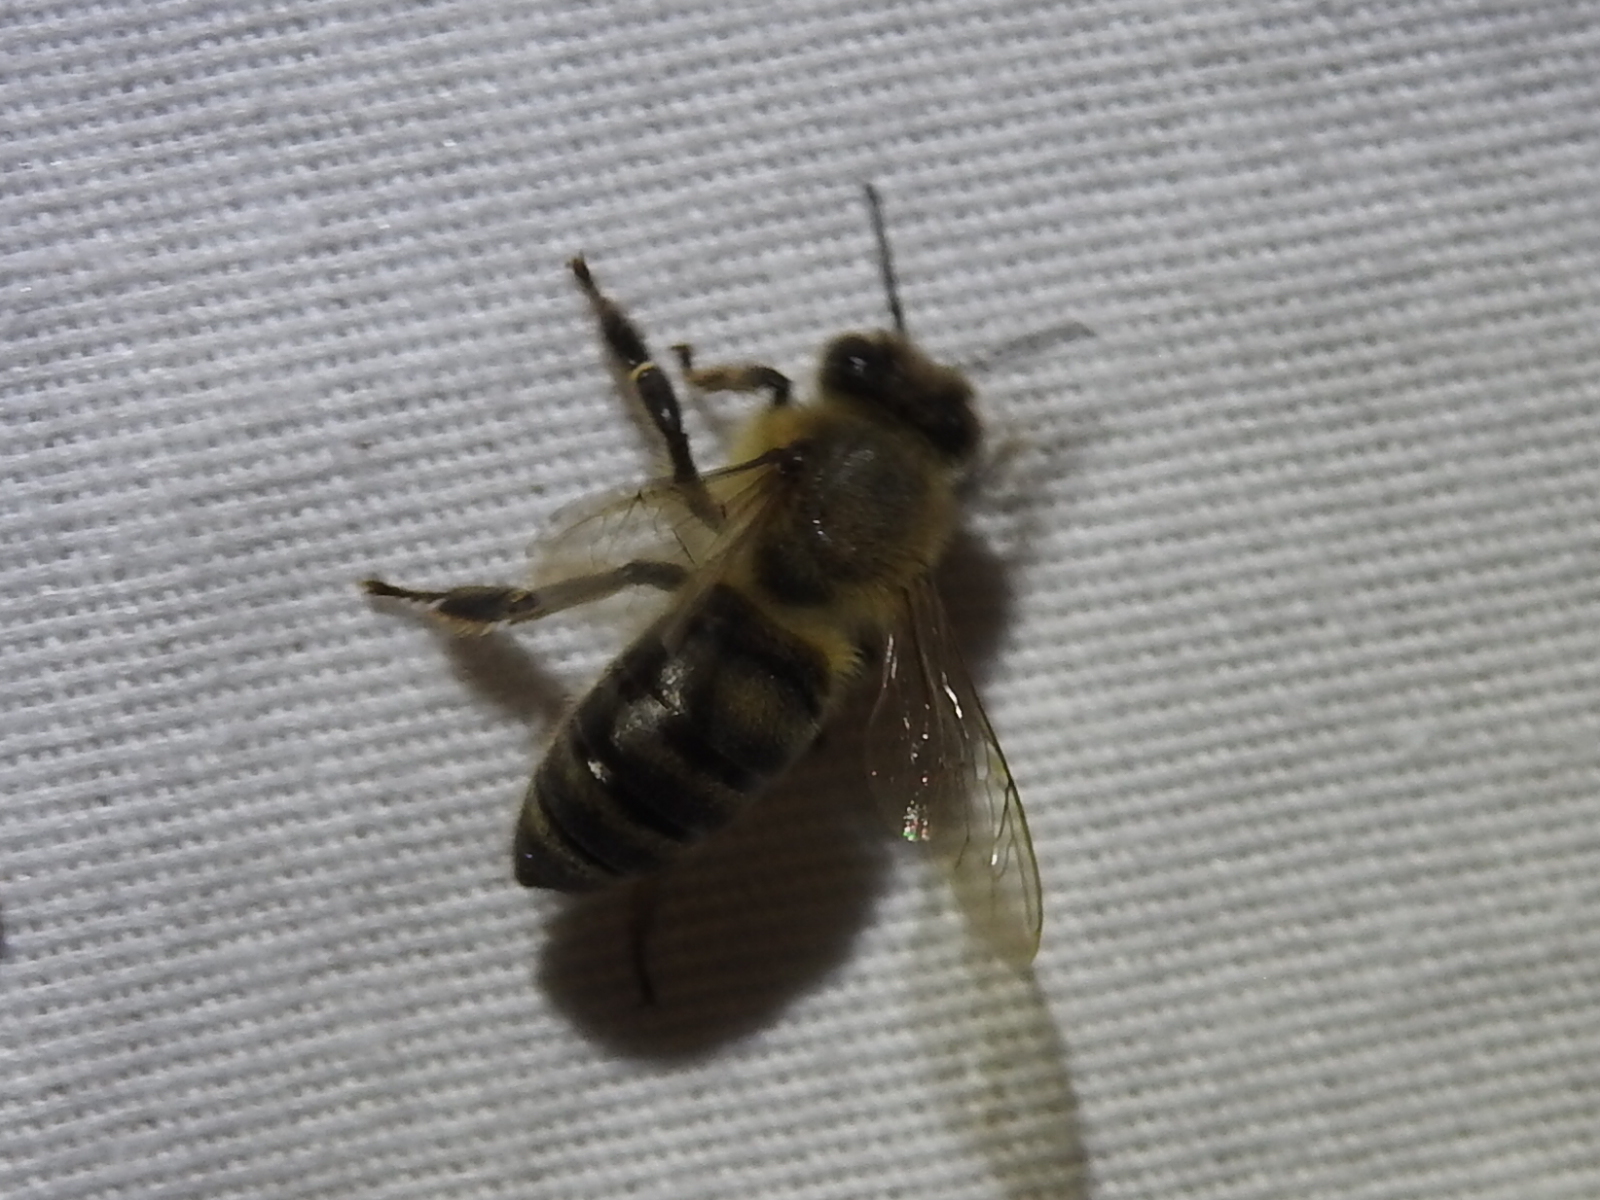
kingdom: Animalia
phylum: Arthropoda
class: Insecta
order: Hymenoptera
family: Apidae
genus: Apis
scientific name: Apis mellifera
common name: Honey bee
